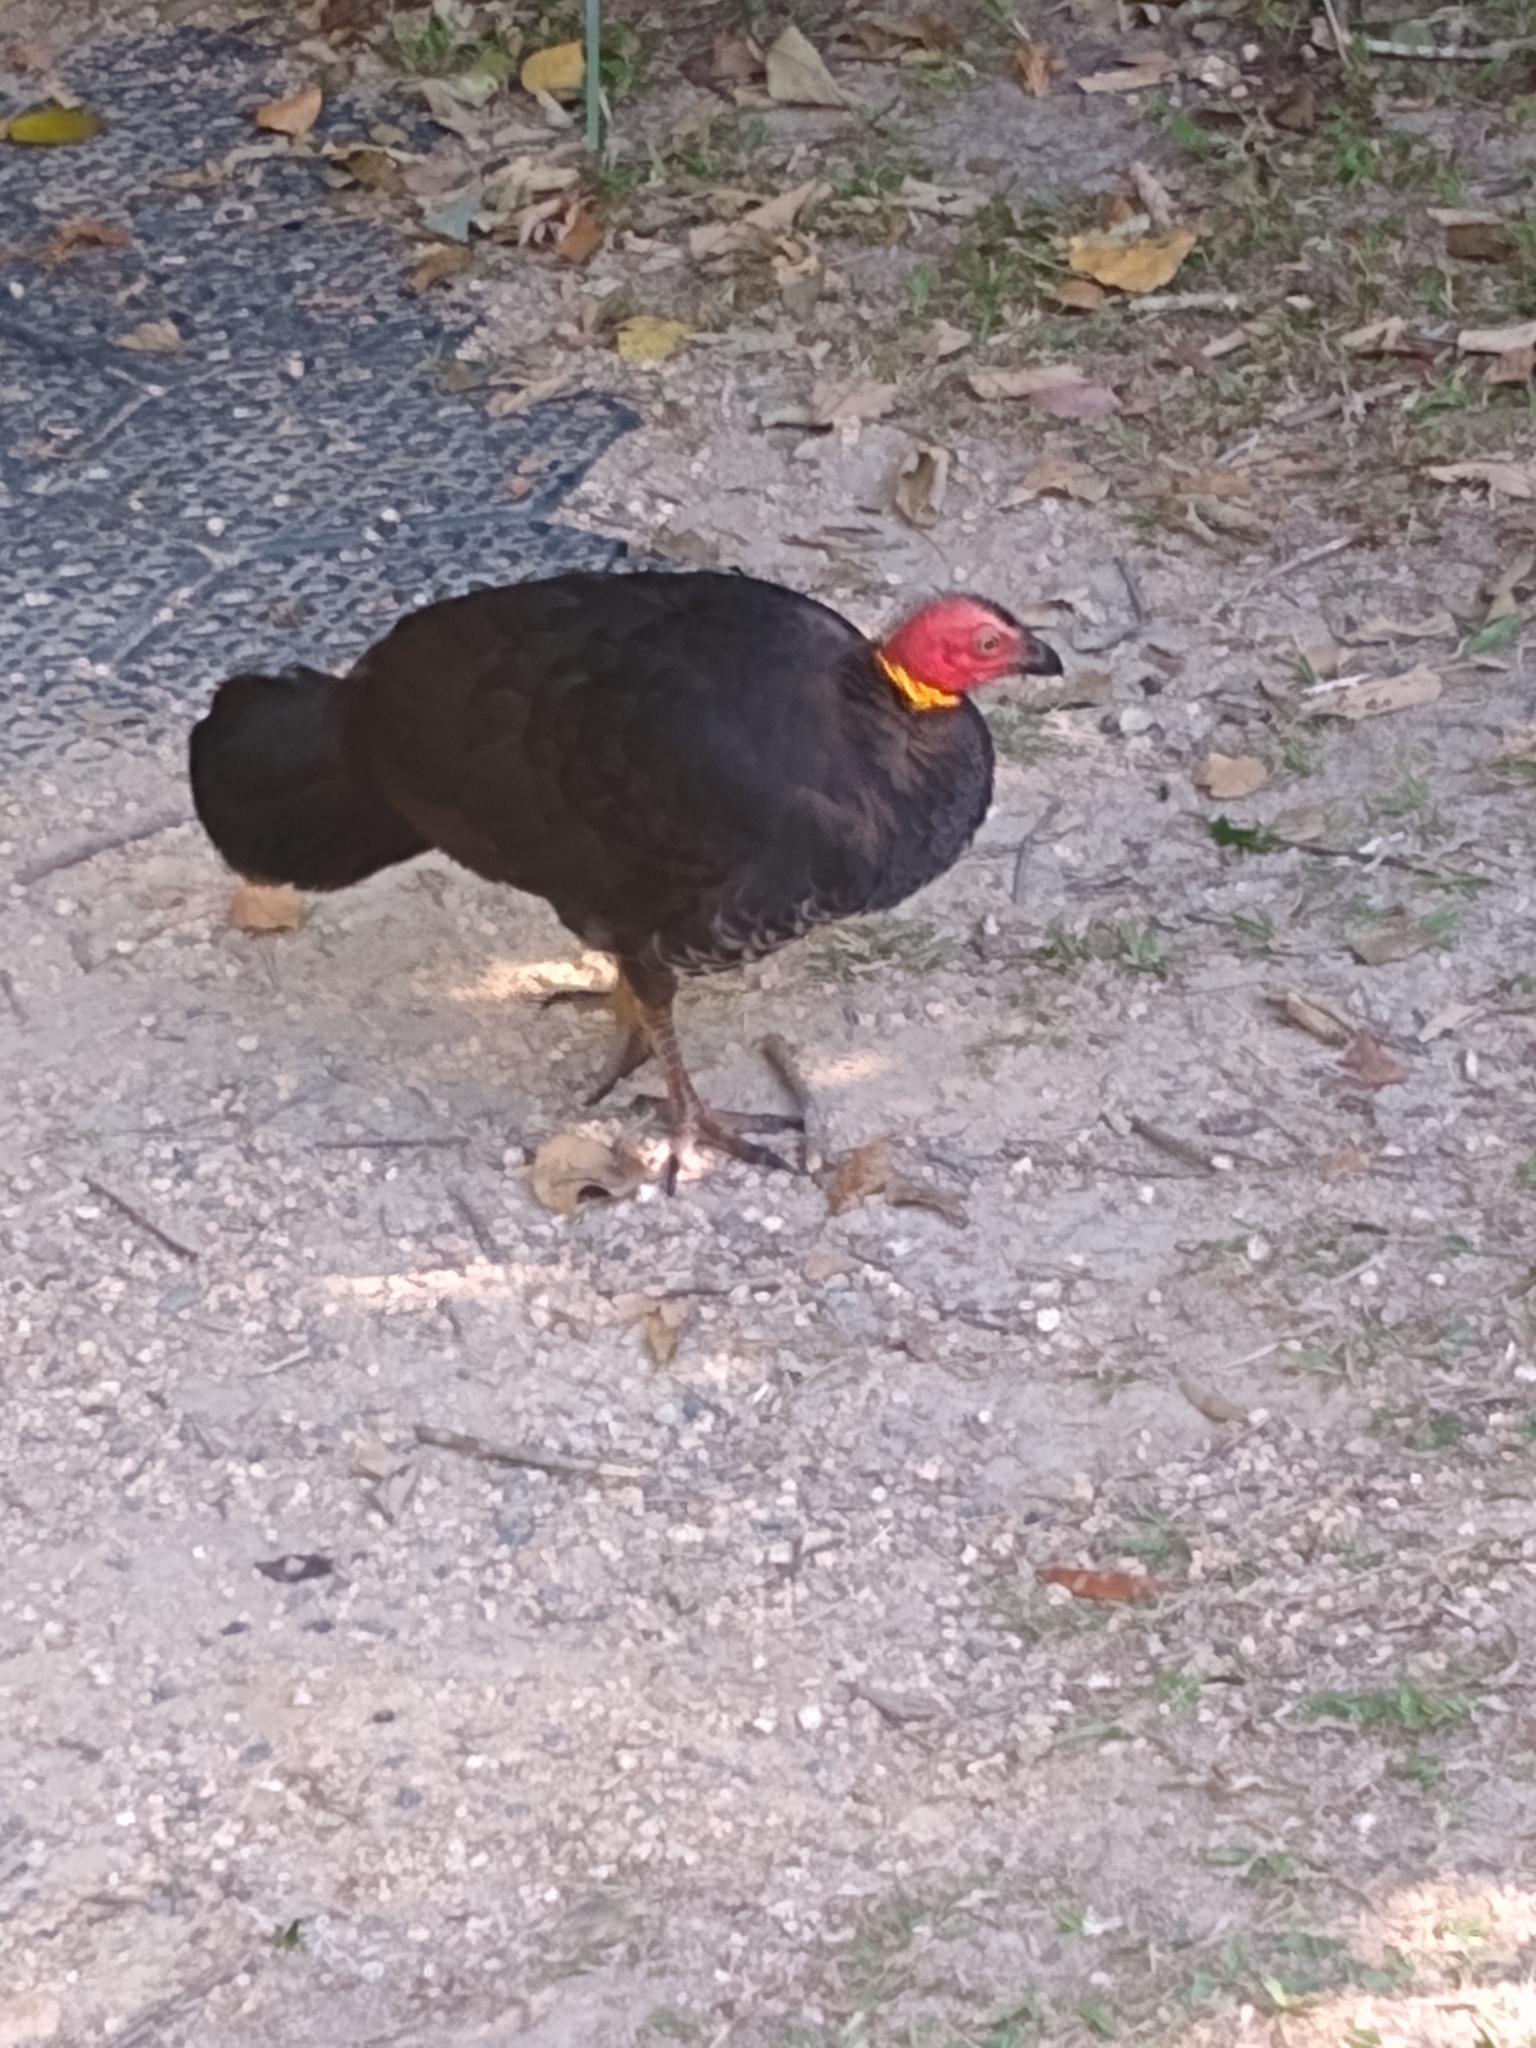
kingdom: Animalia
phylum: Chordata
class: Aves
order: Galliformes
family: Megapodiidae
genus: Alectura
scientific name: Alectura lathami
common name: Australian brushturkey
